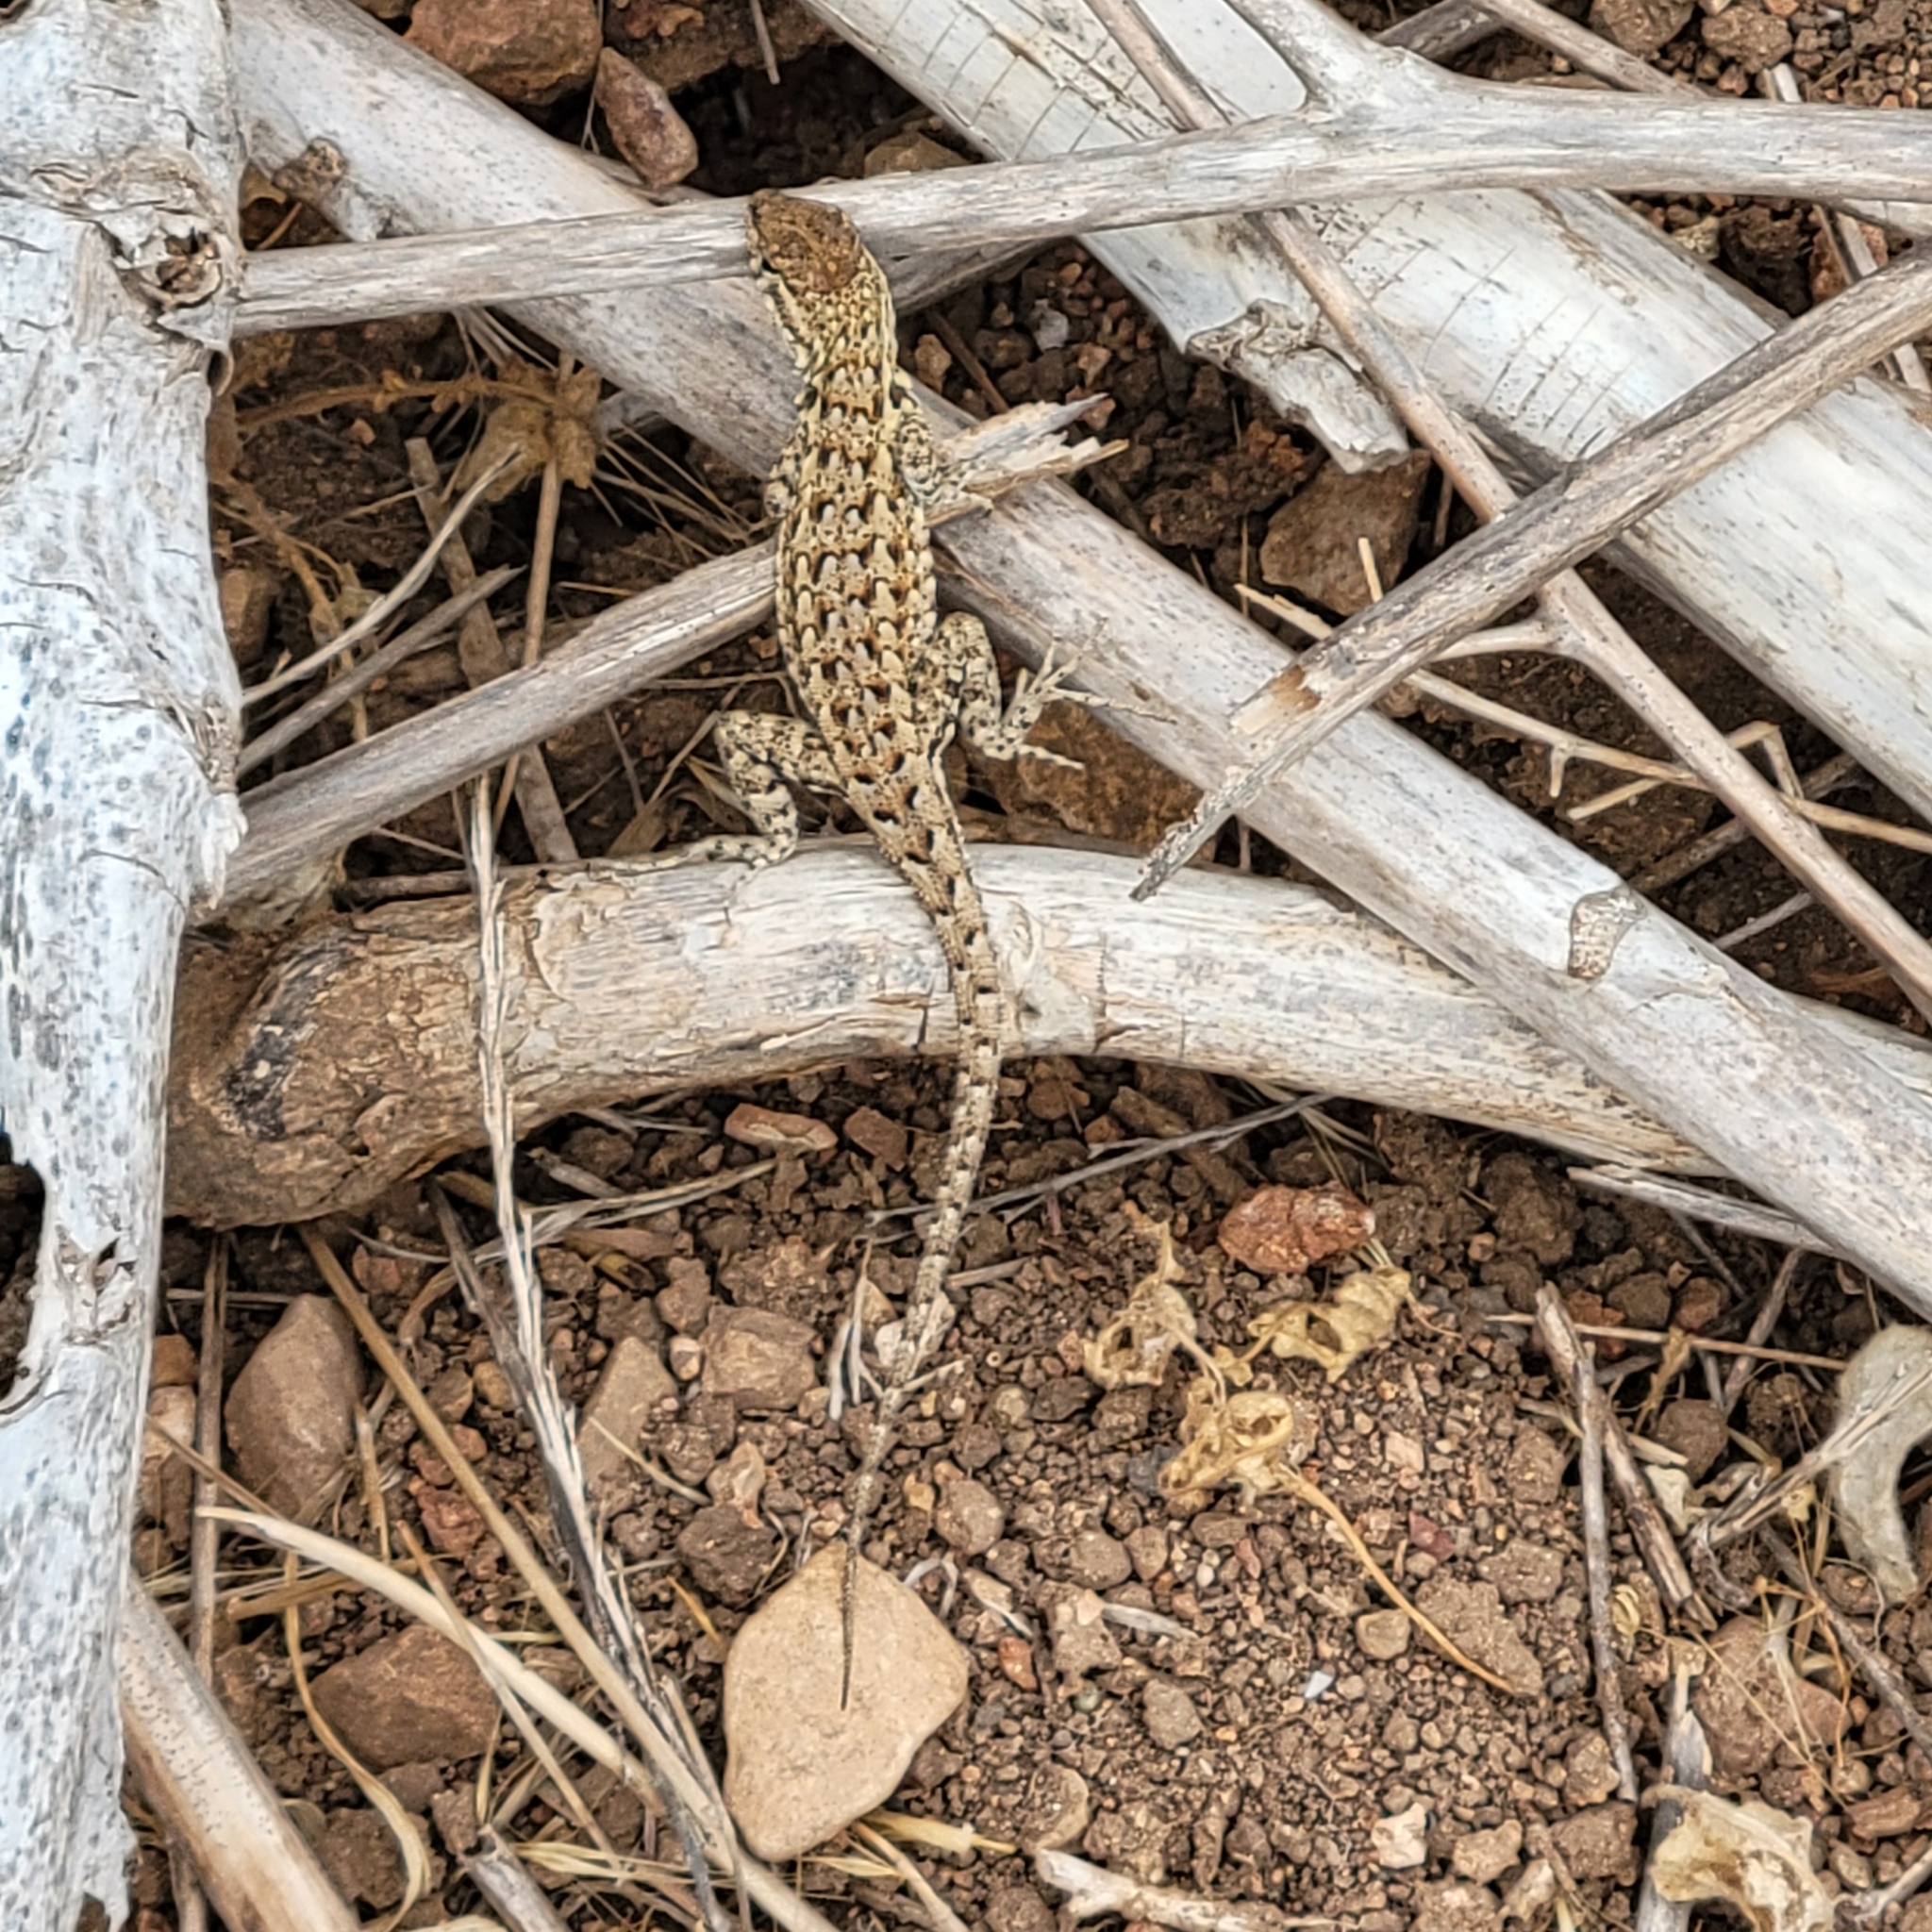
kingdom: Animalia
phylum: Chordata
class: Squamata
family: Phrynosomatidae
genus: Uta
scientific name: Uta stansburiana
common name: Side-blotched lizard
